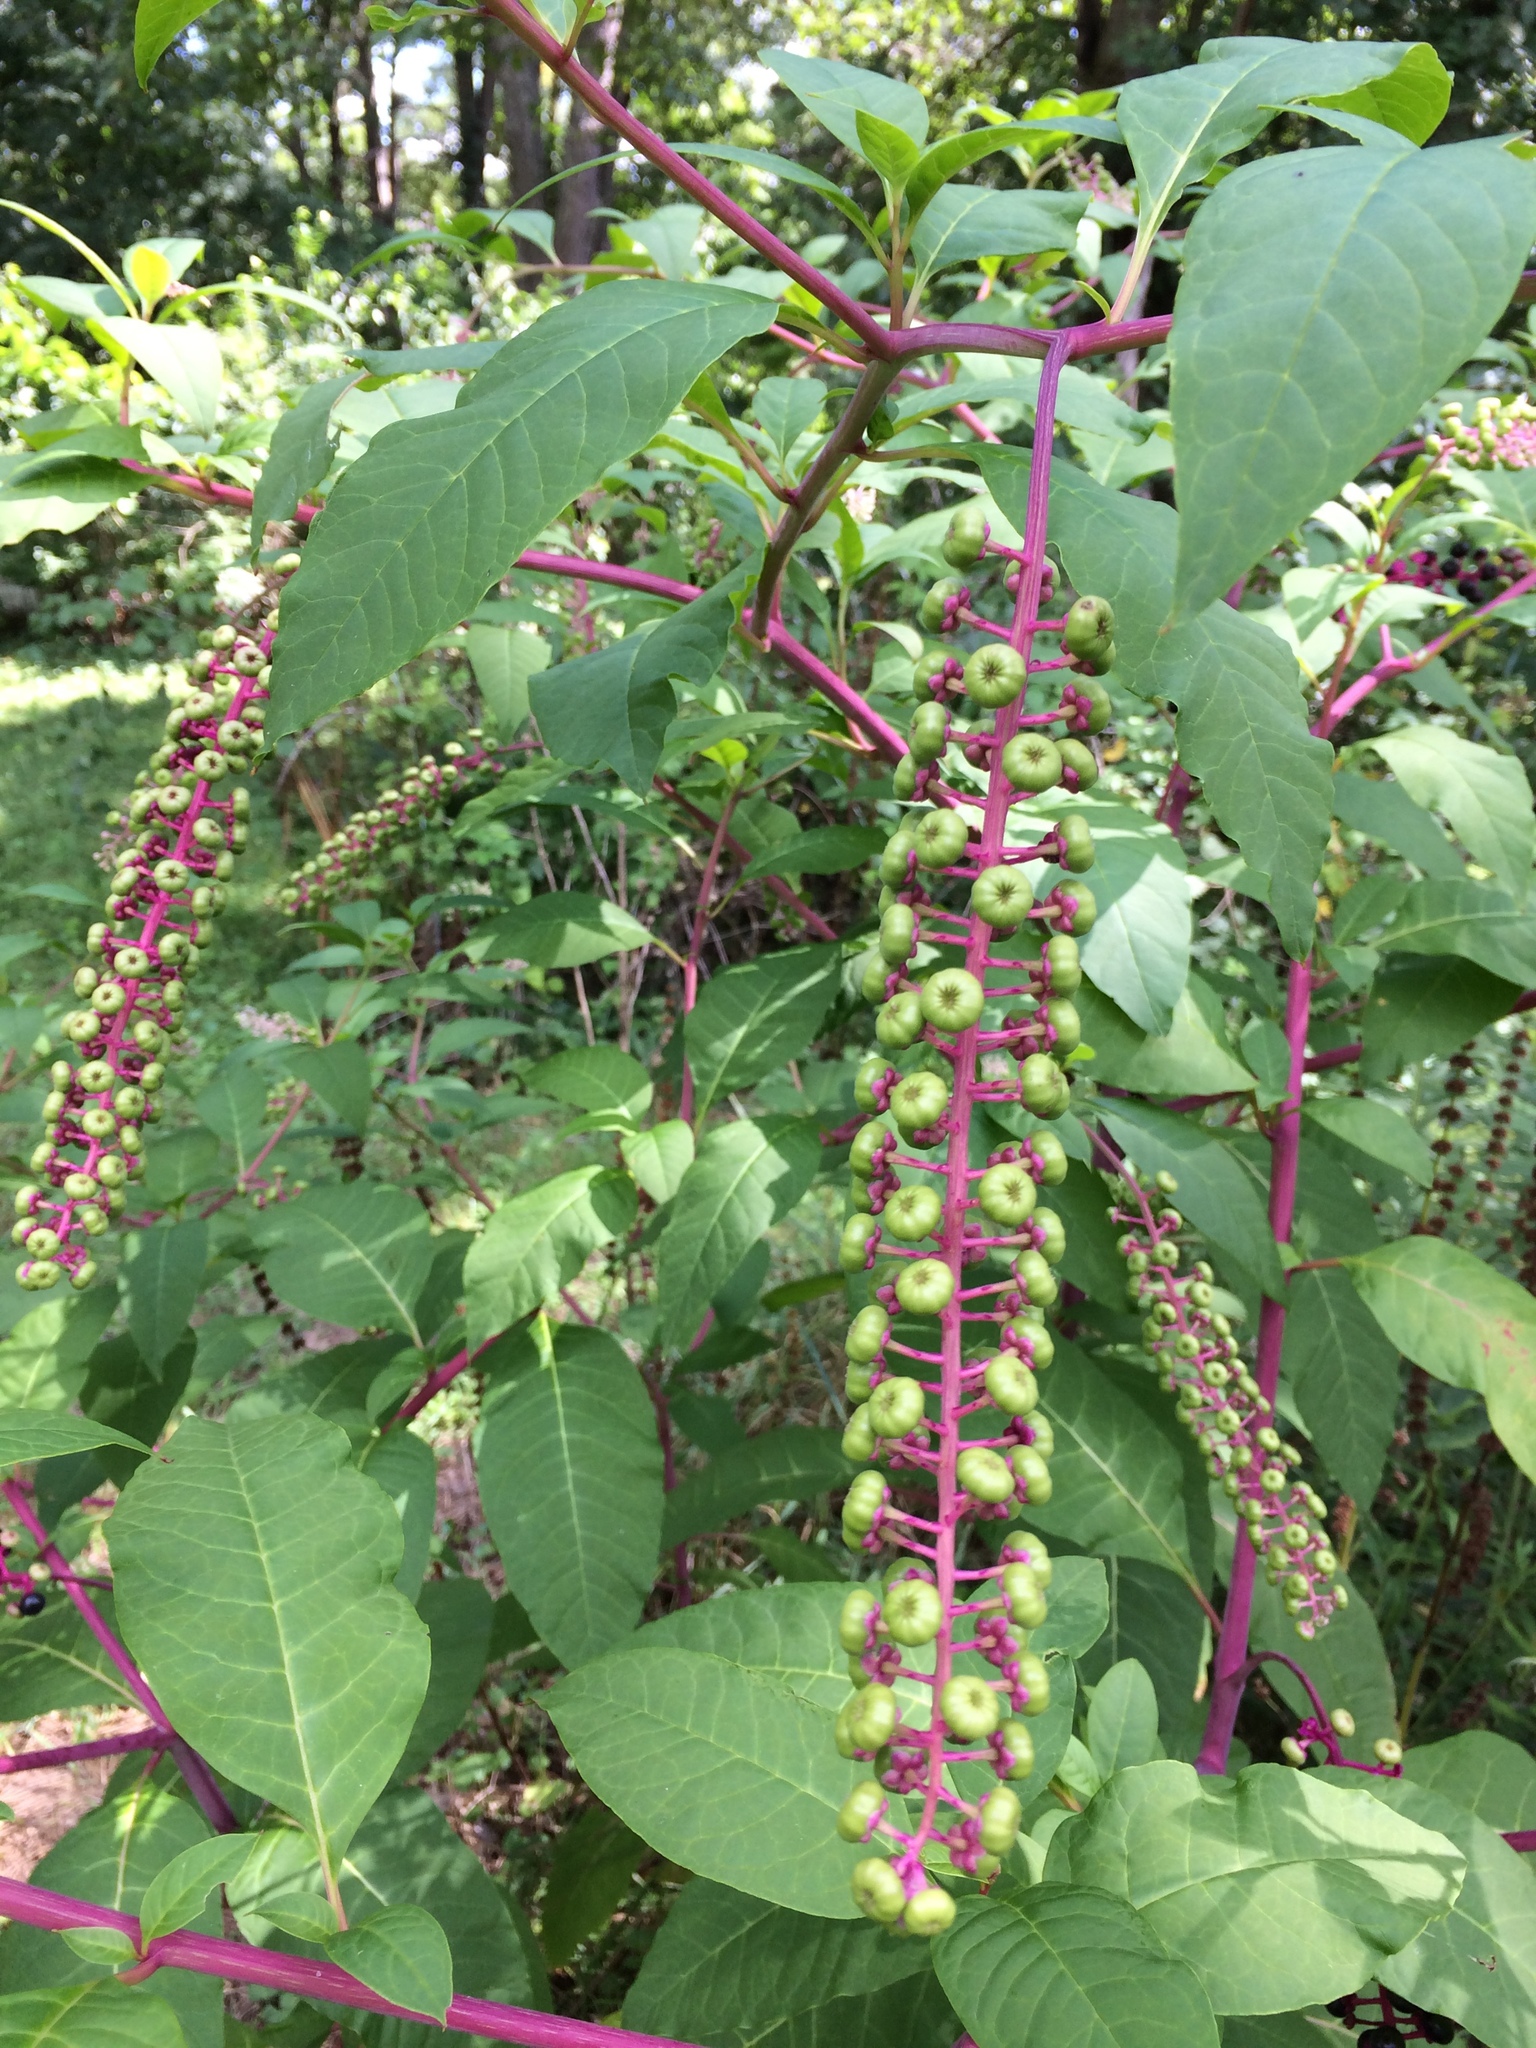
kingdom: Plantae
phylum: Tracheophyta
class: Magnoliopsida
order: Caryophyllales
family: Phytolaccaceae
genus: Phytolacca
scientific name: Phytolacca americana
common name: American pokeweed
